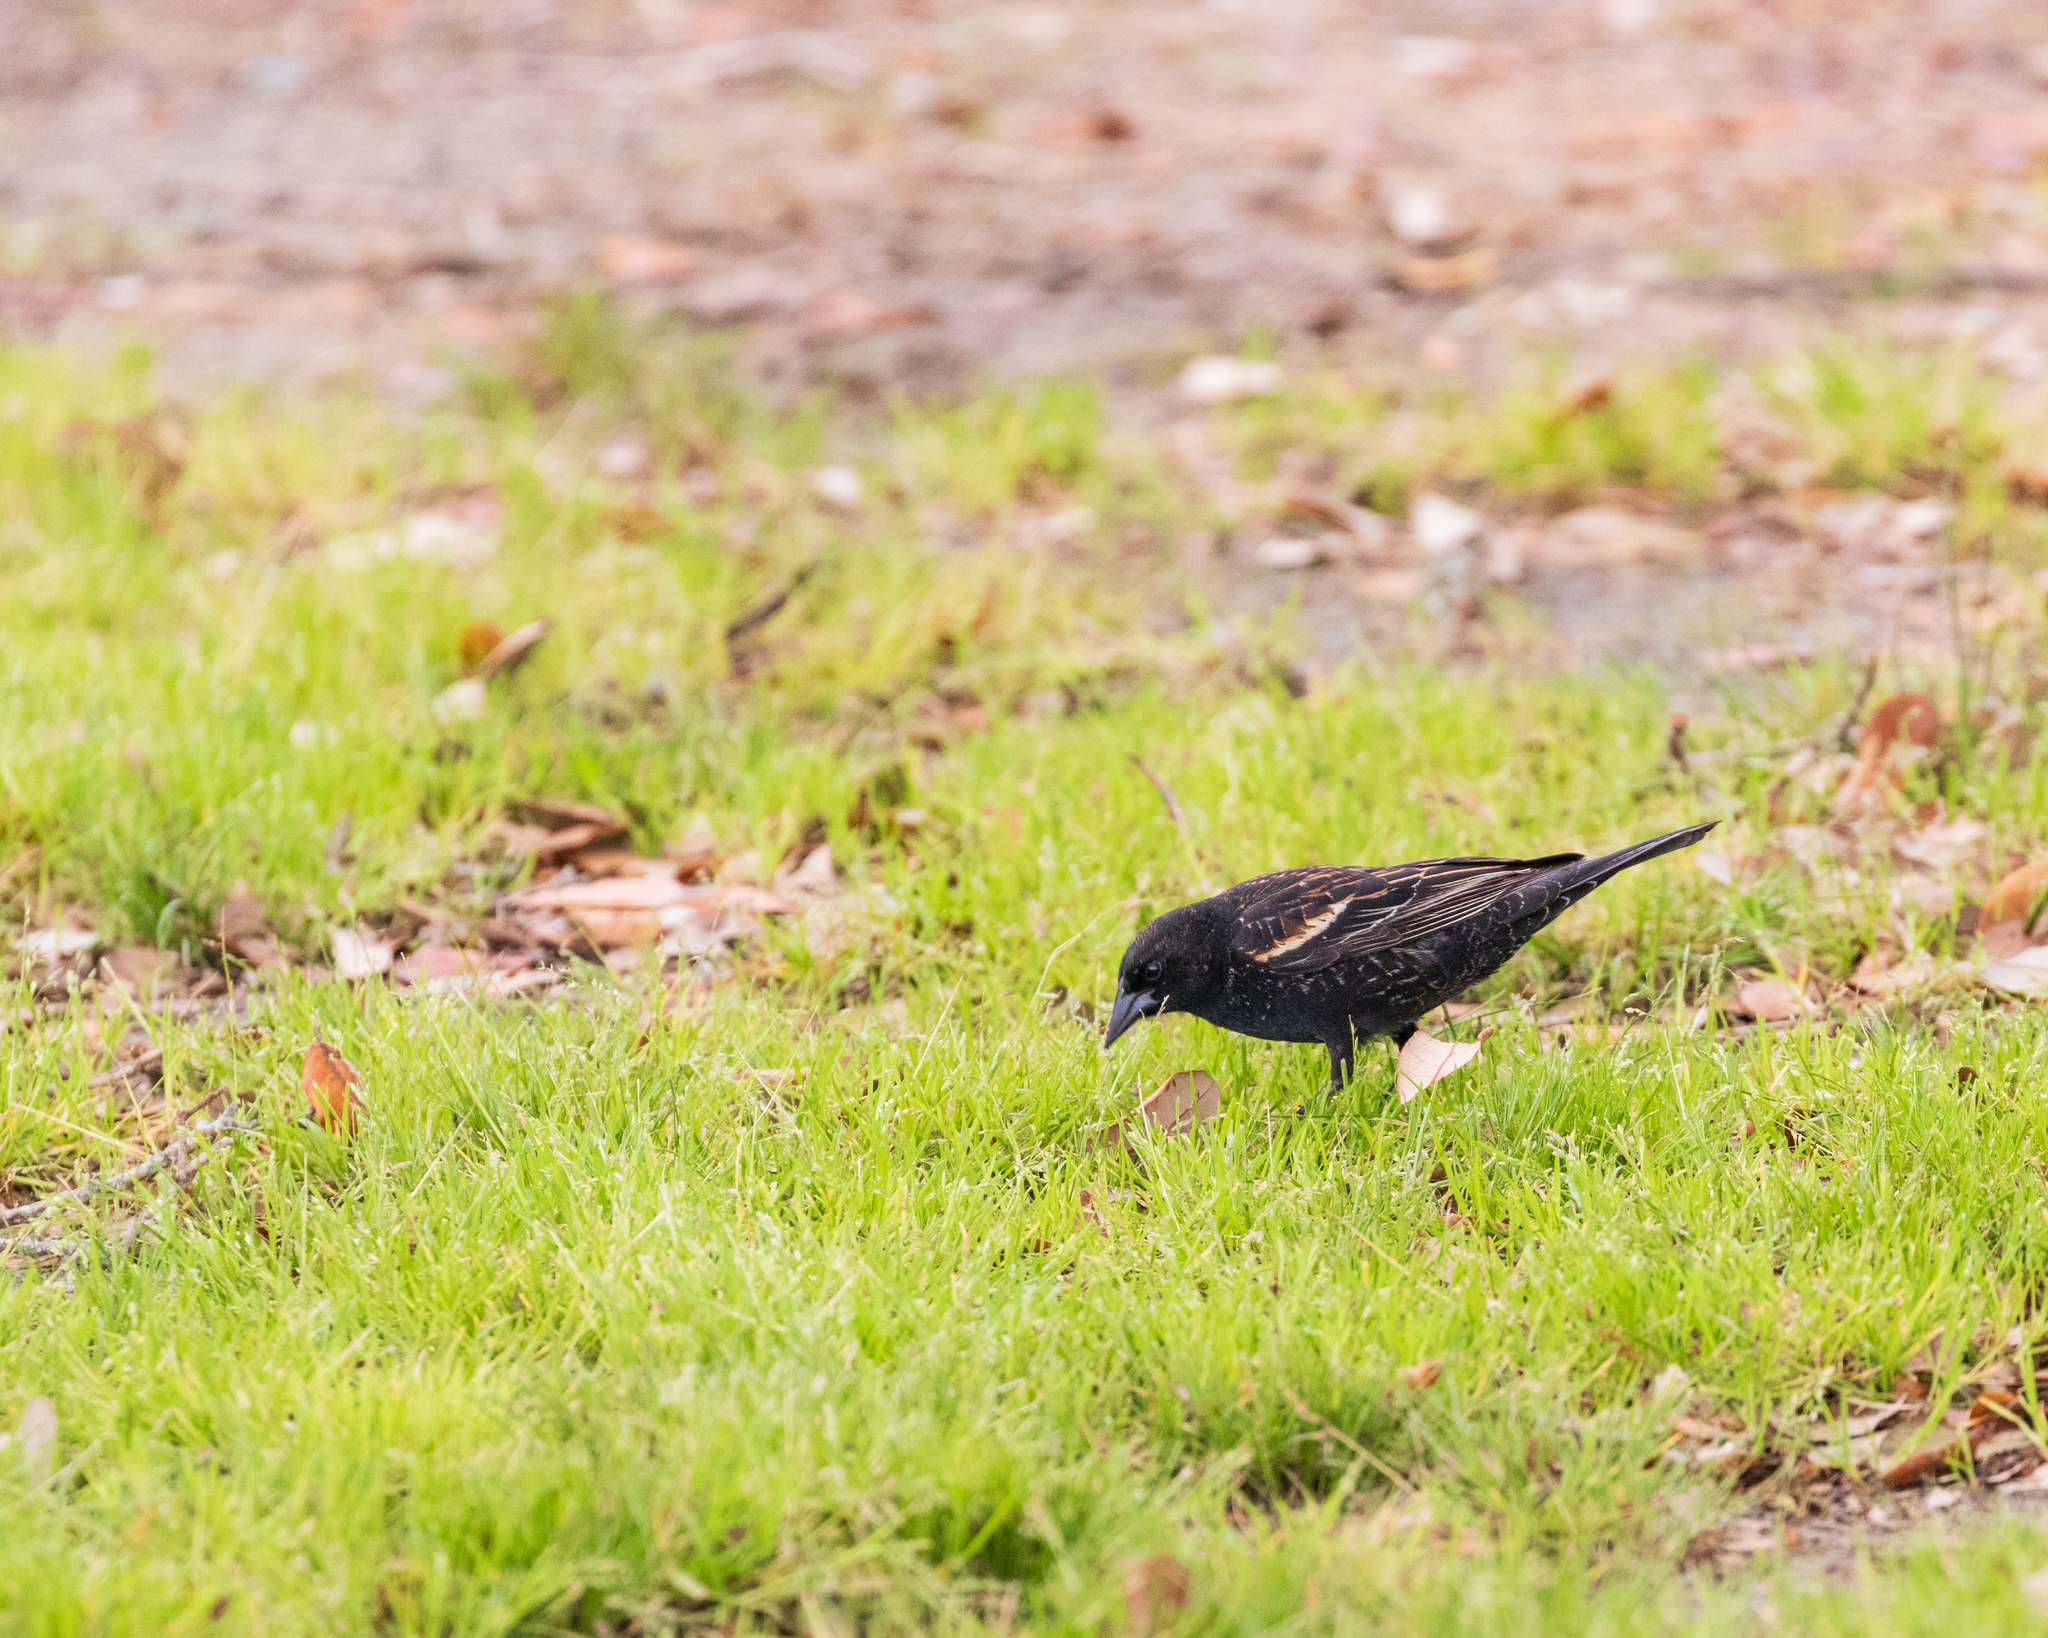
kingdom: Animalia
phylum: Chordata
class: Aves
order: Passeriformes
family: Icteridae
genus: Agelaius
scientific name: Agelaius phoeniceus
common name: Red-winged blackbird
